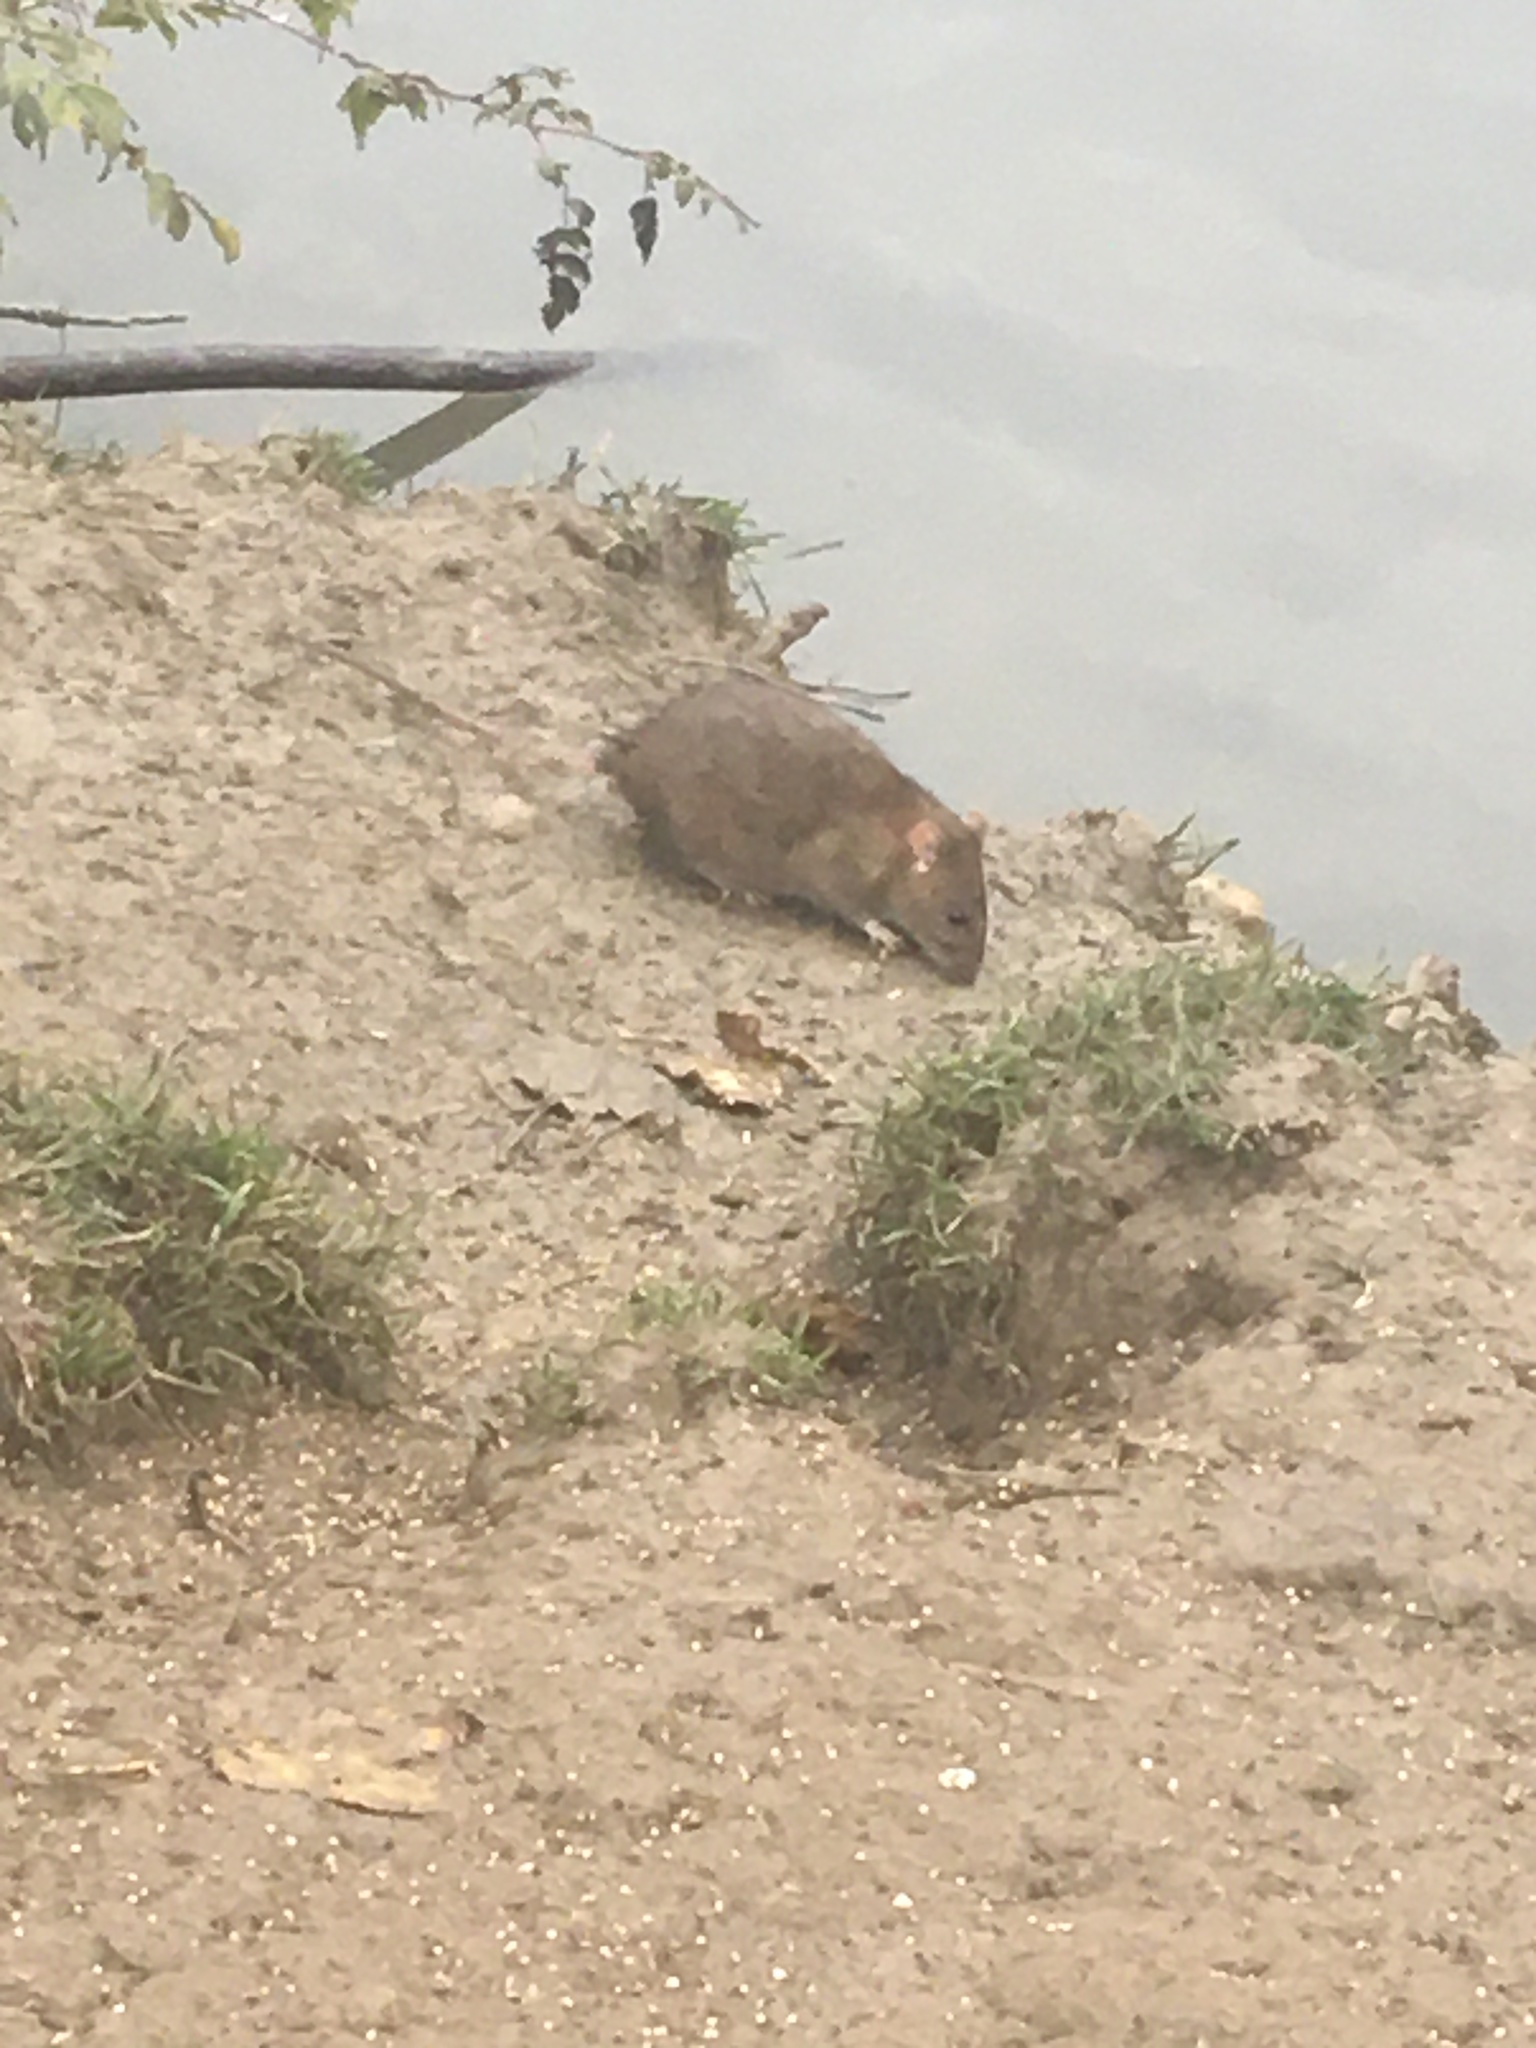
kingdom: Animalia
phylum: Chordata
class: Mammalia
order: Rodentia
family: Muridae
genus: Rattus
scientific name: Rattus norvegicus
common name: Brown rat
